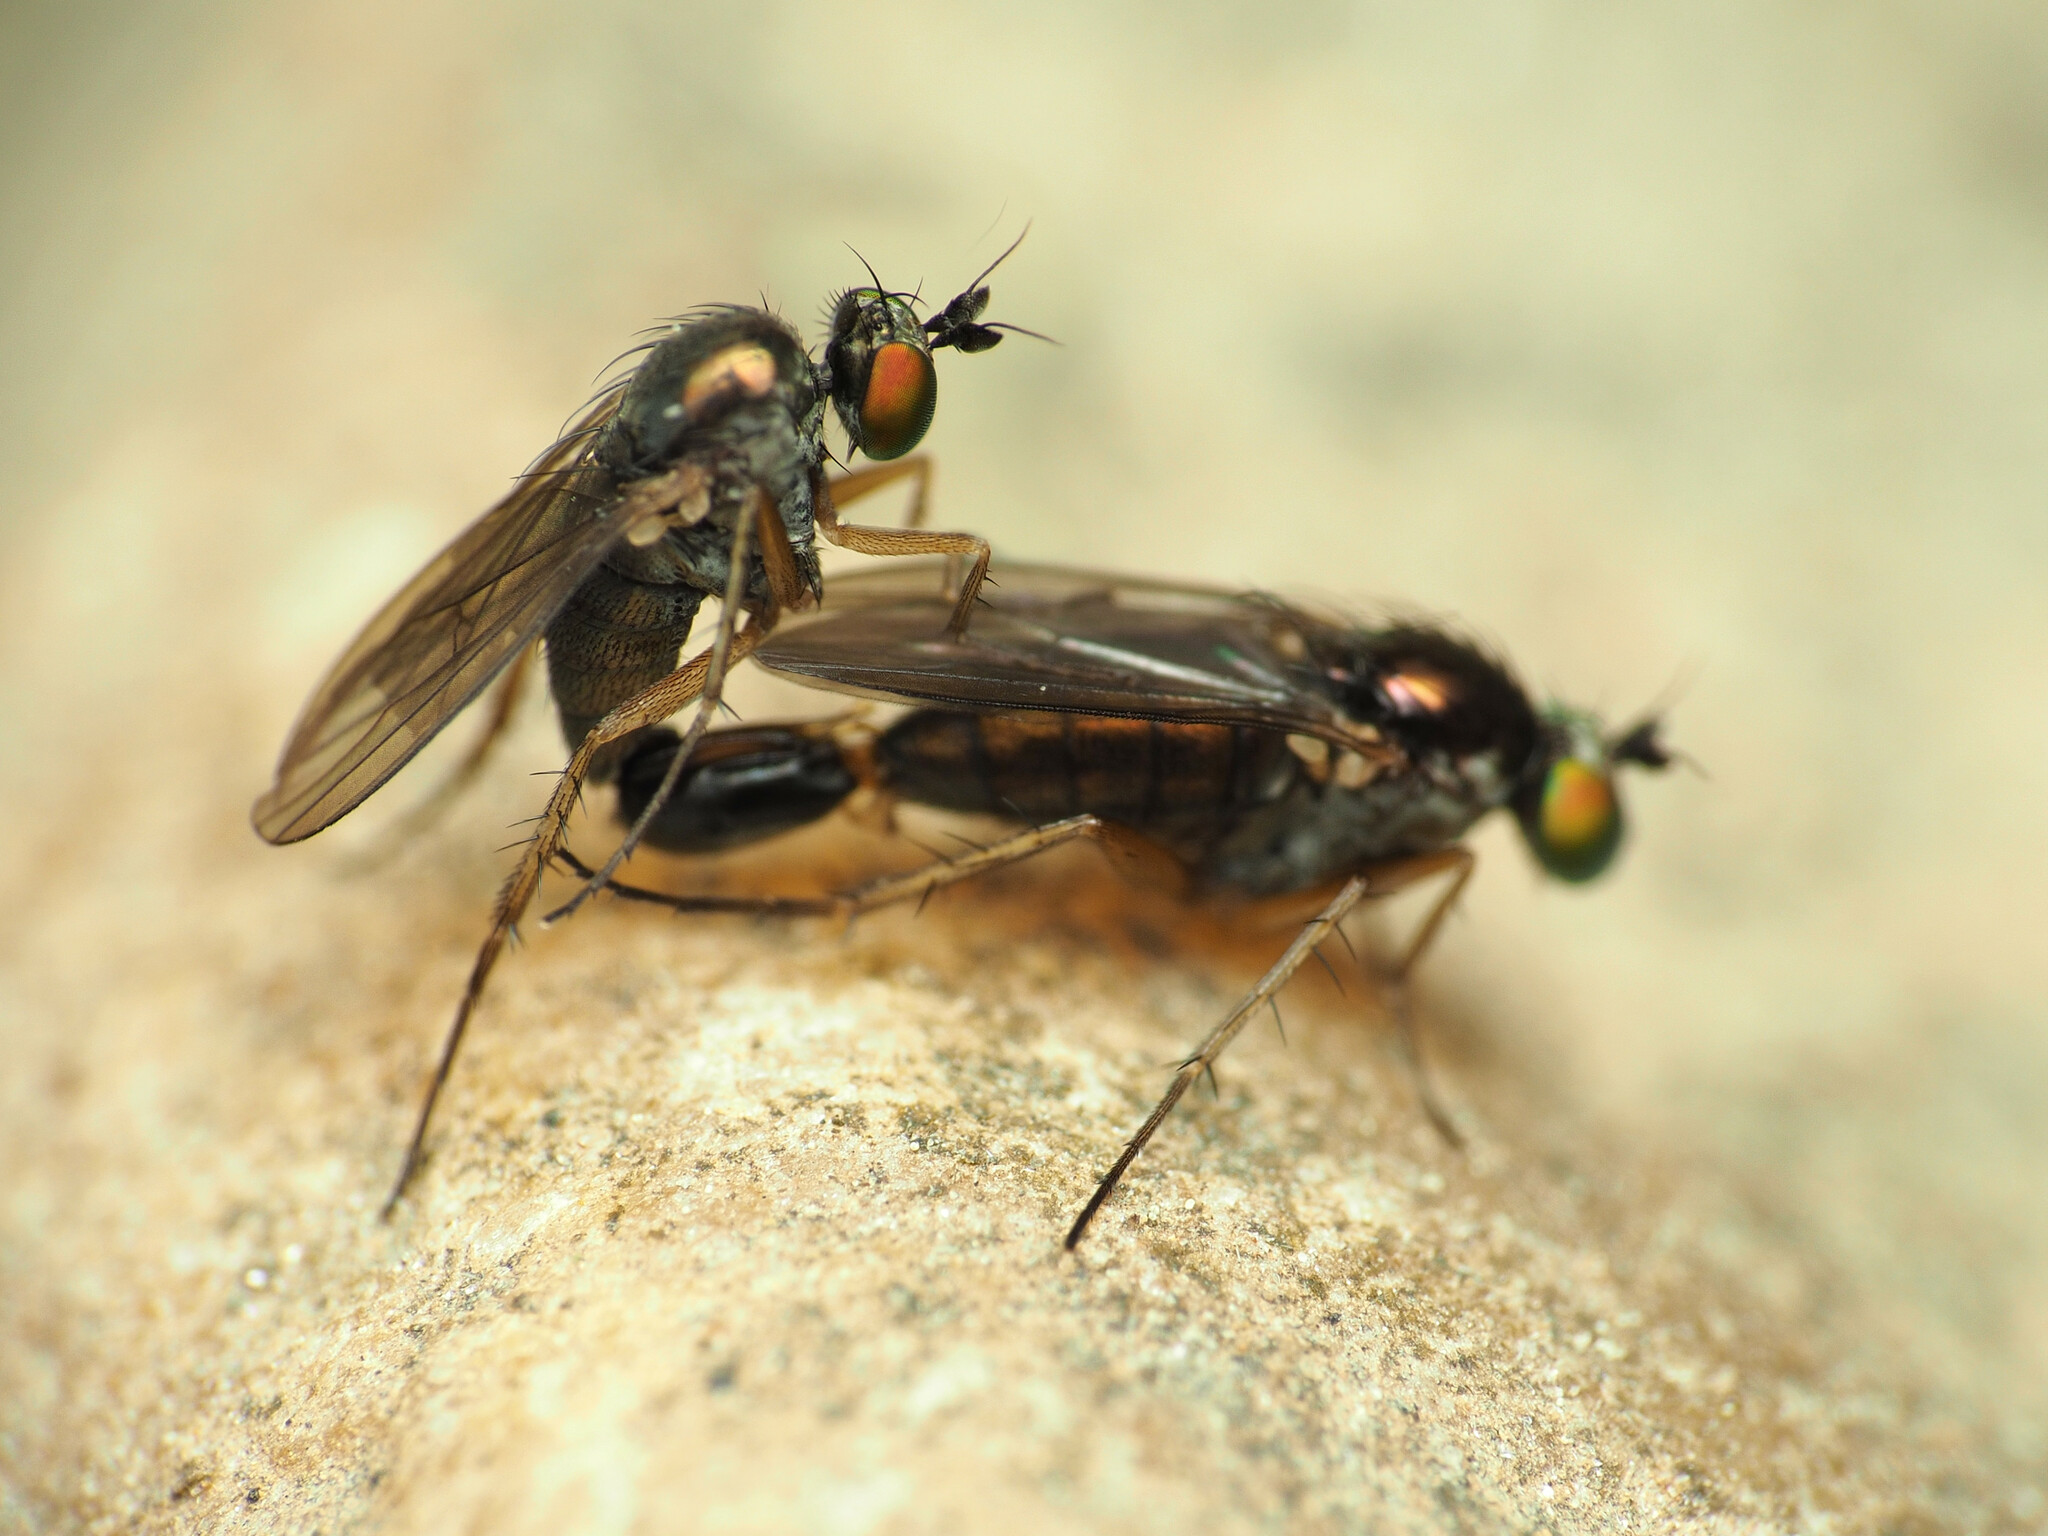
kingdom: Animalia
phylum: Arthropoda
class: Insecta
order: Diptera
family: Dolichopodidae
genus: Gymnopternus
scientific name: Gymnopternus meniscus
